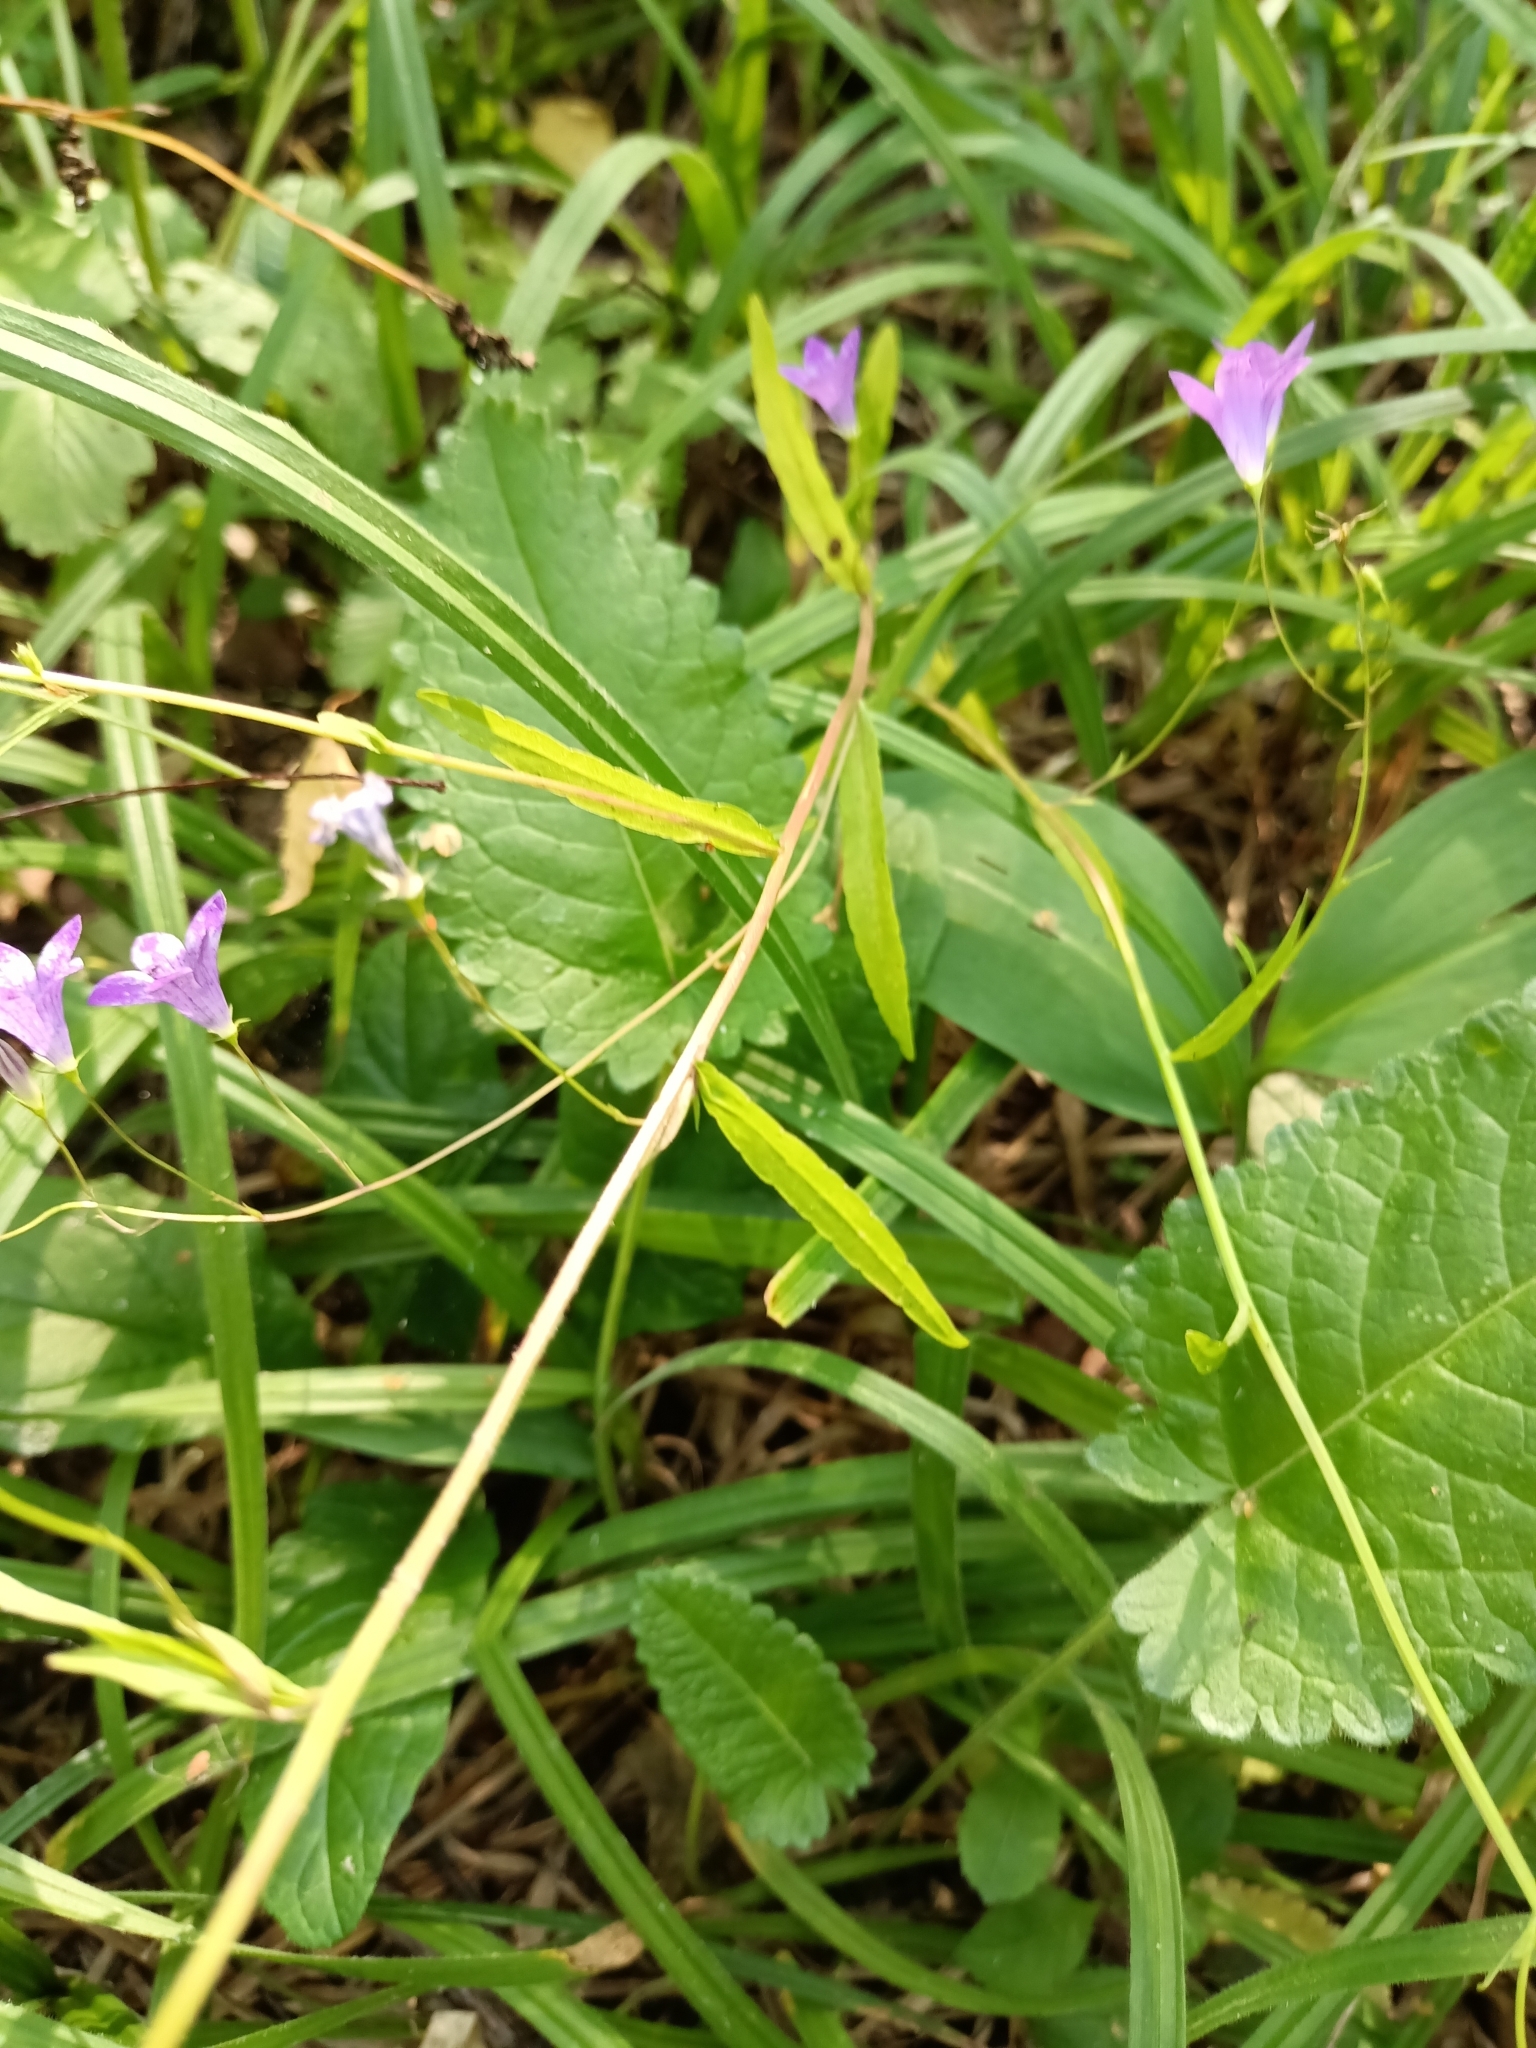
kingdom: Plantae
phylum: Tracheophyta
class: Magnoliopsida
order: Asterales
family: Campanulaceae
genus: Campanula
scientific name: Campanula patula
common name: Spreading bellflower
